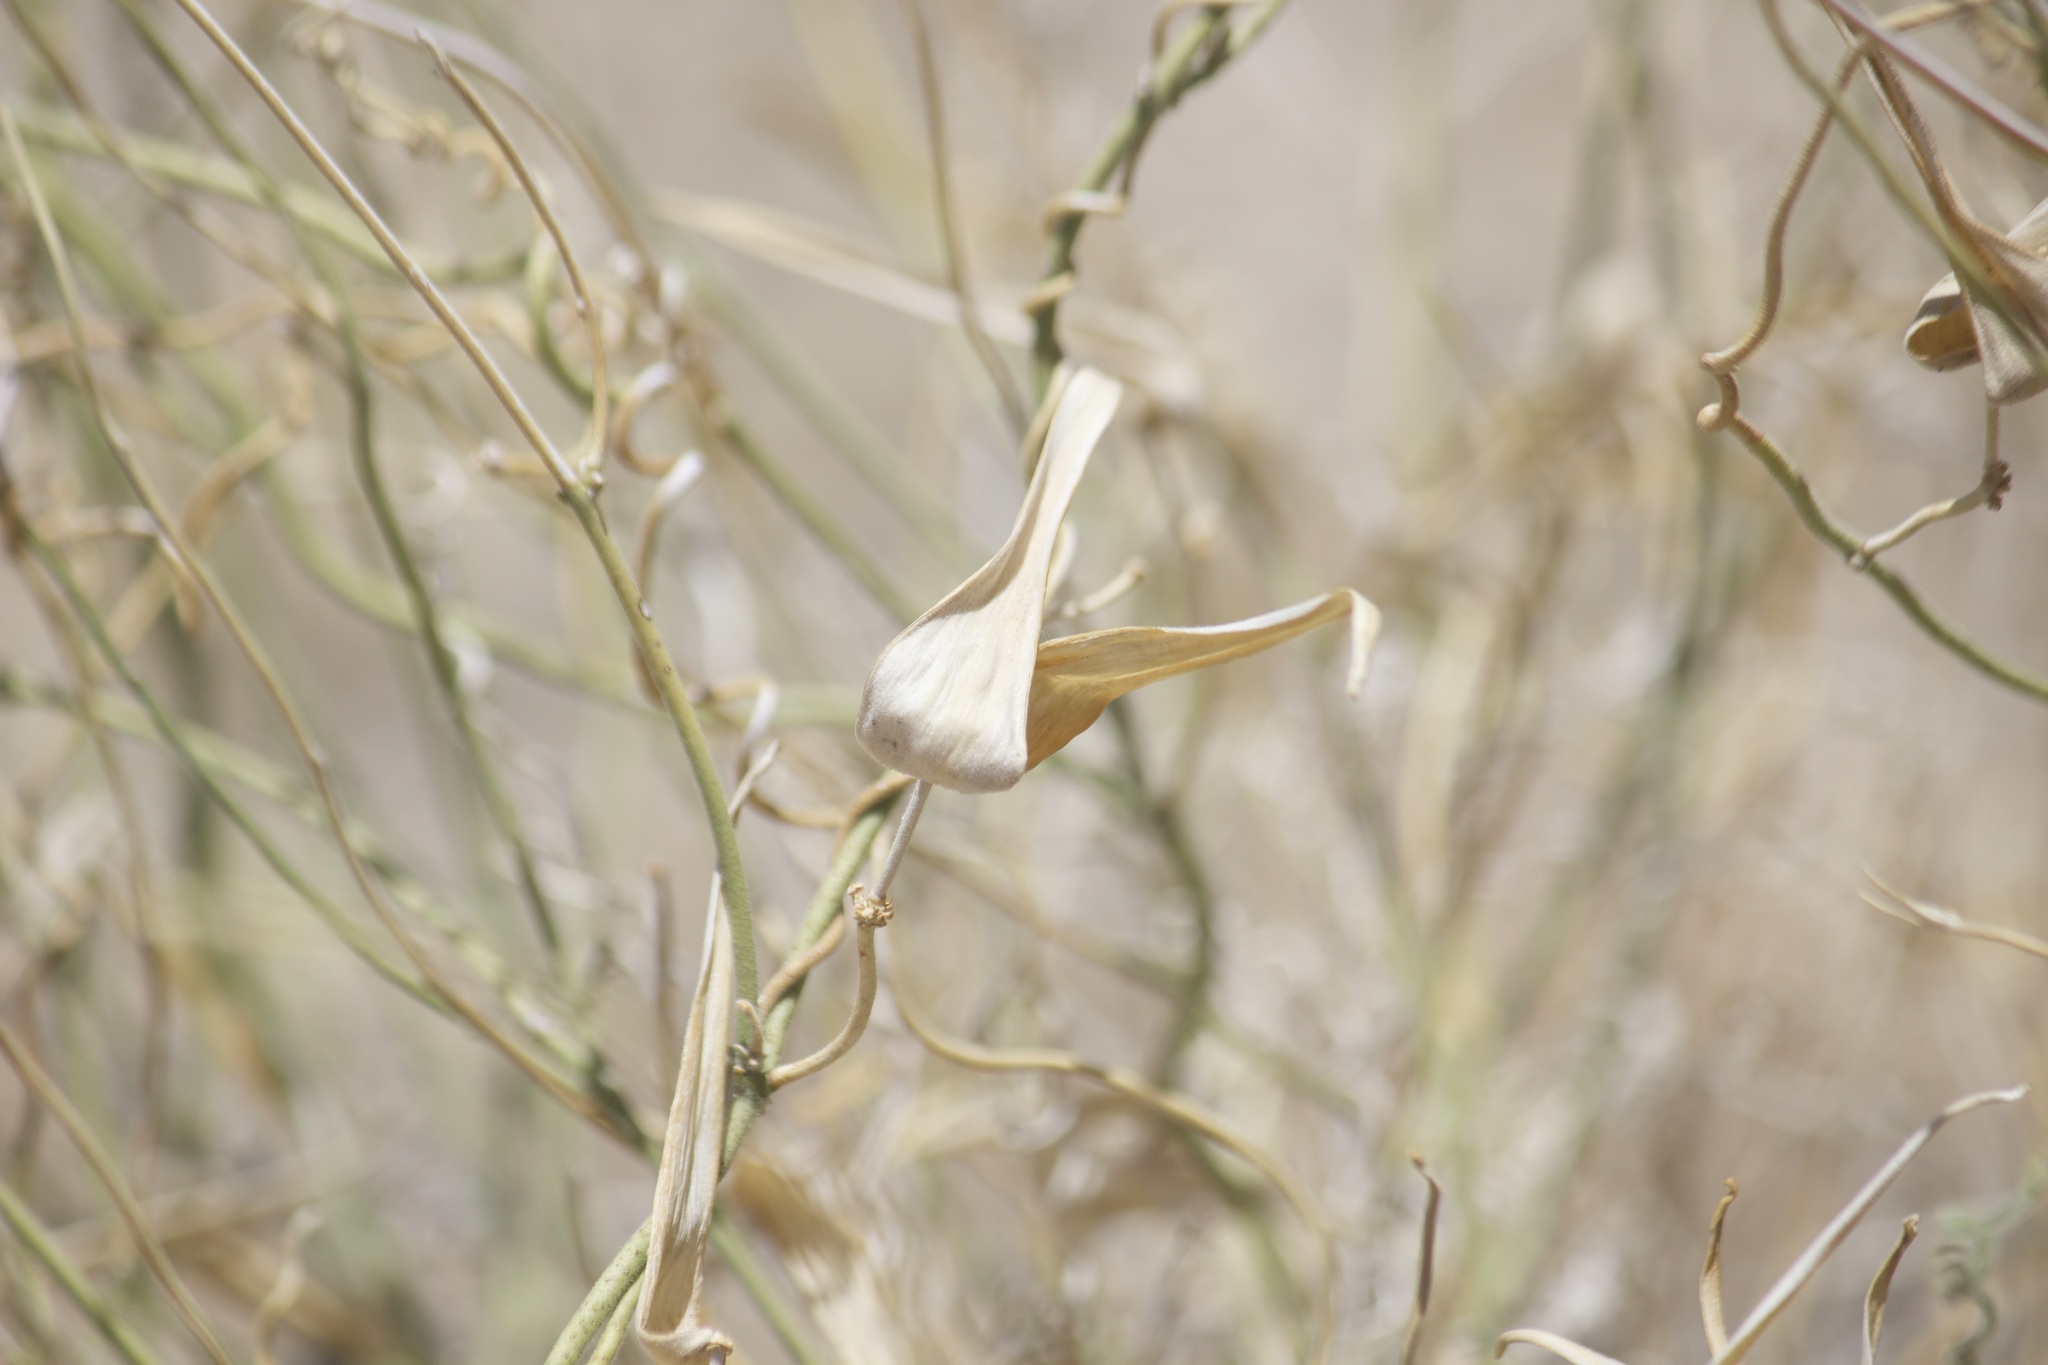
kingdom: Plantae
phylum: Tracheophyta
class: Magnoliopsida
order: Gentianales
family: Apocynaceae
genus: Funastrum
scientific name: Funastrum hirtellum
